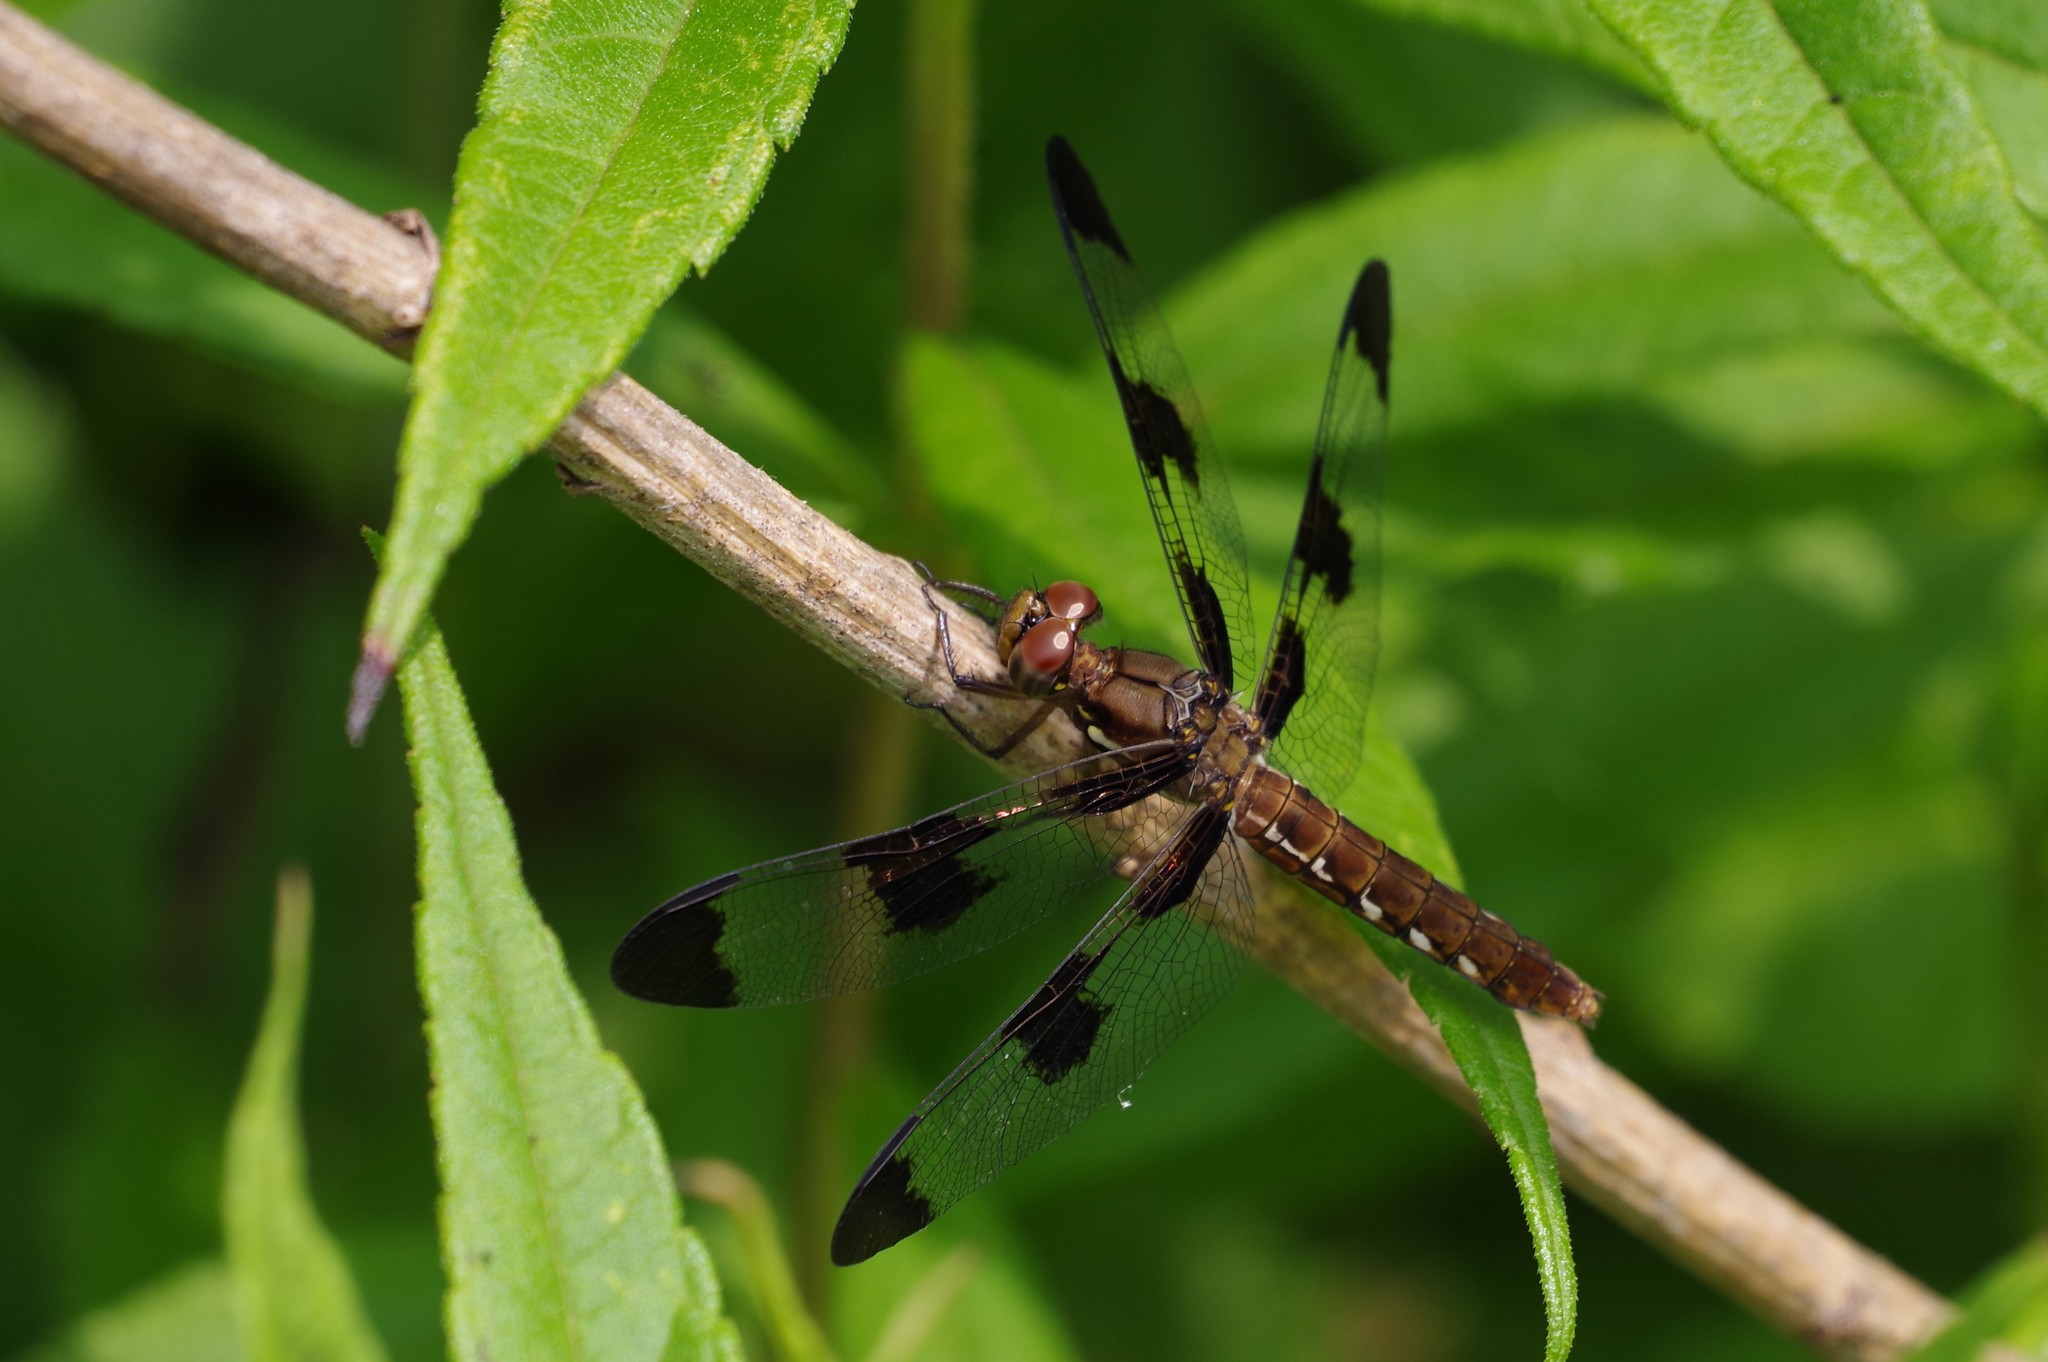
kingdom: Animalia
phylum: Arthropoda
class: Insecta
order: Odonata
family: Libellulidae
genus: Plathemis
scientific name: Plathemis lydia
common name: Common whitetail
